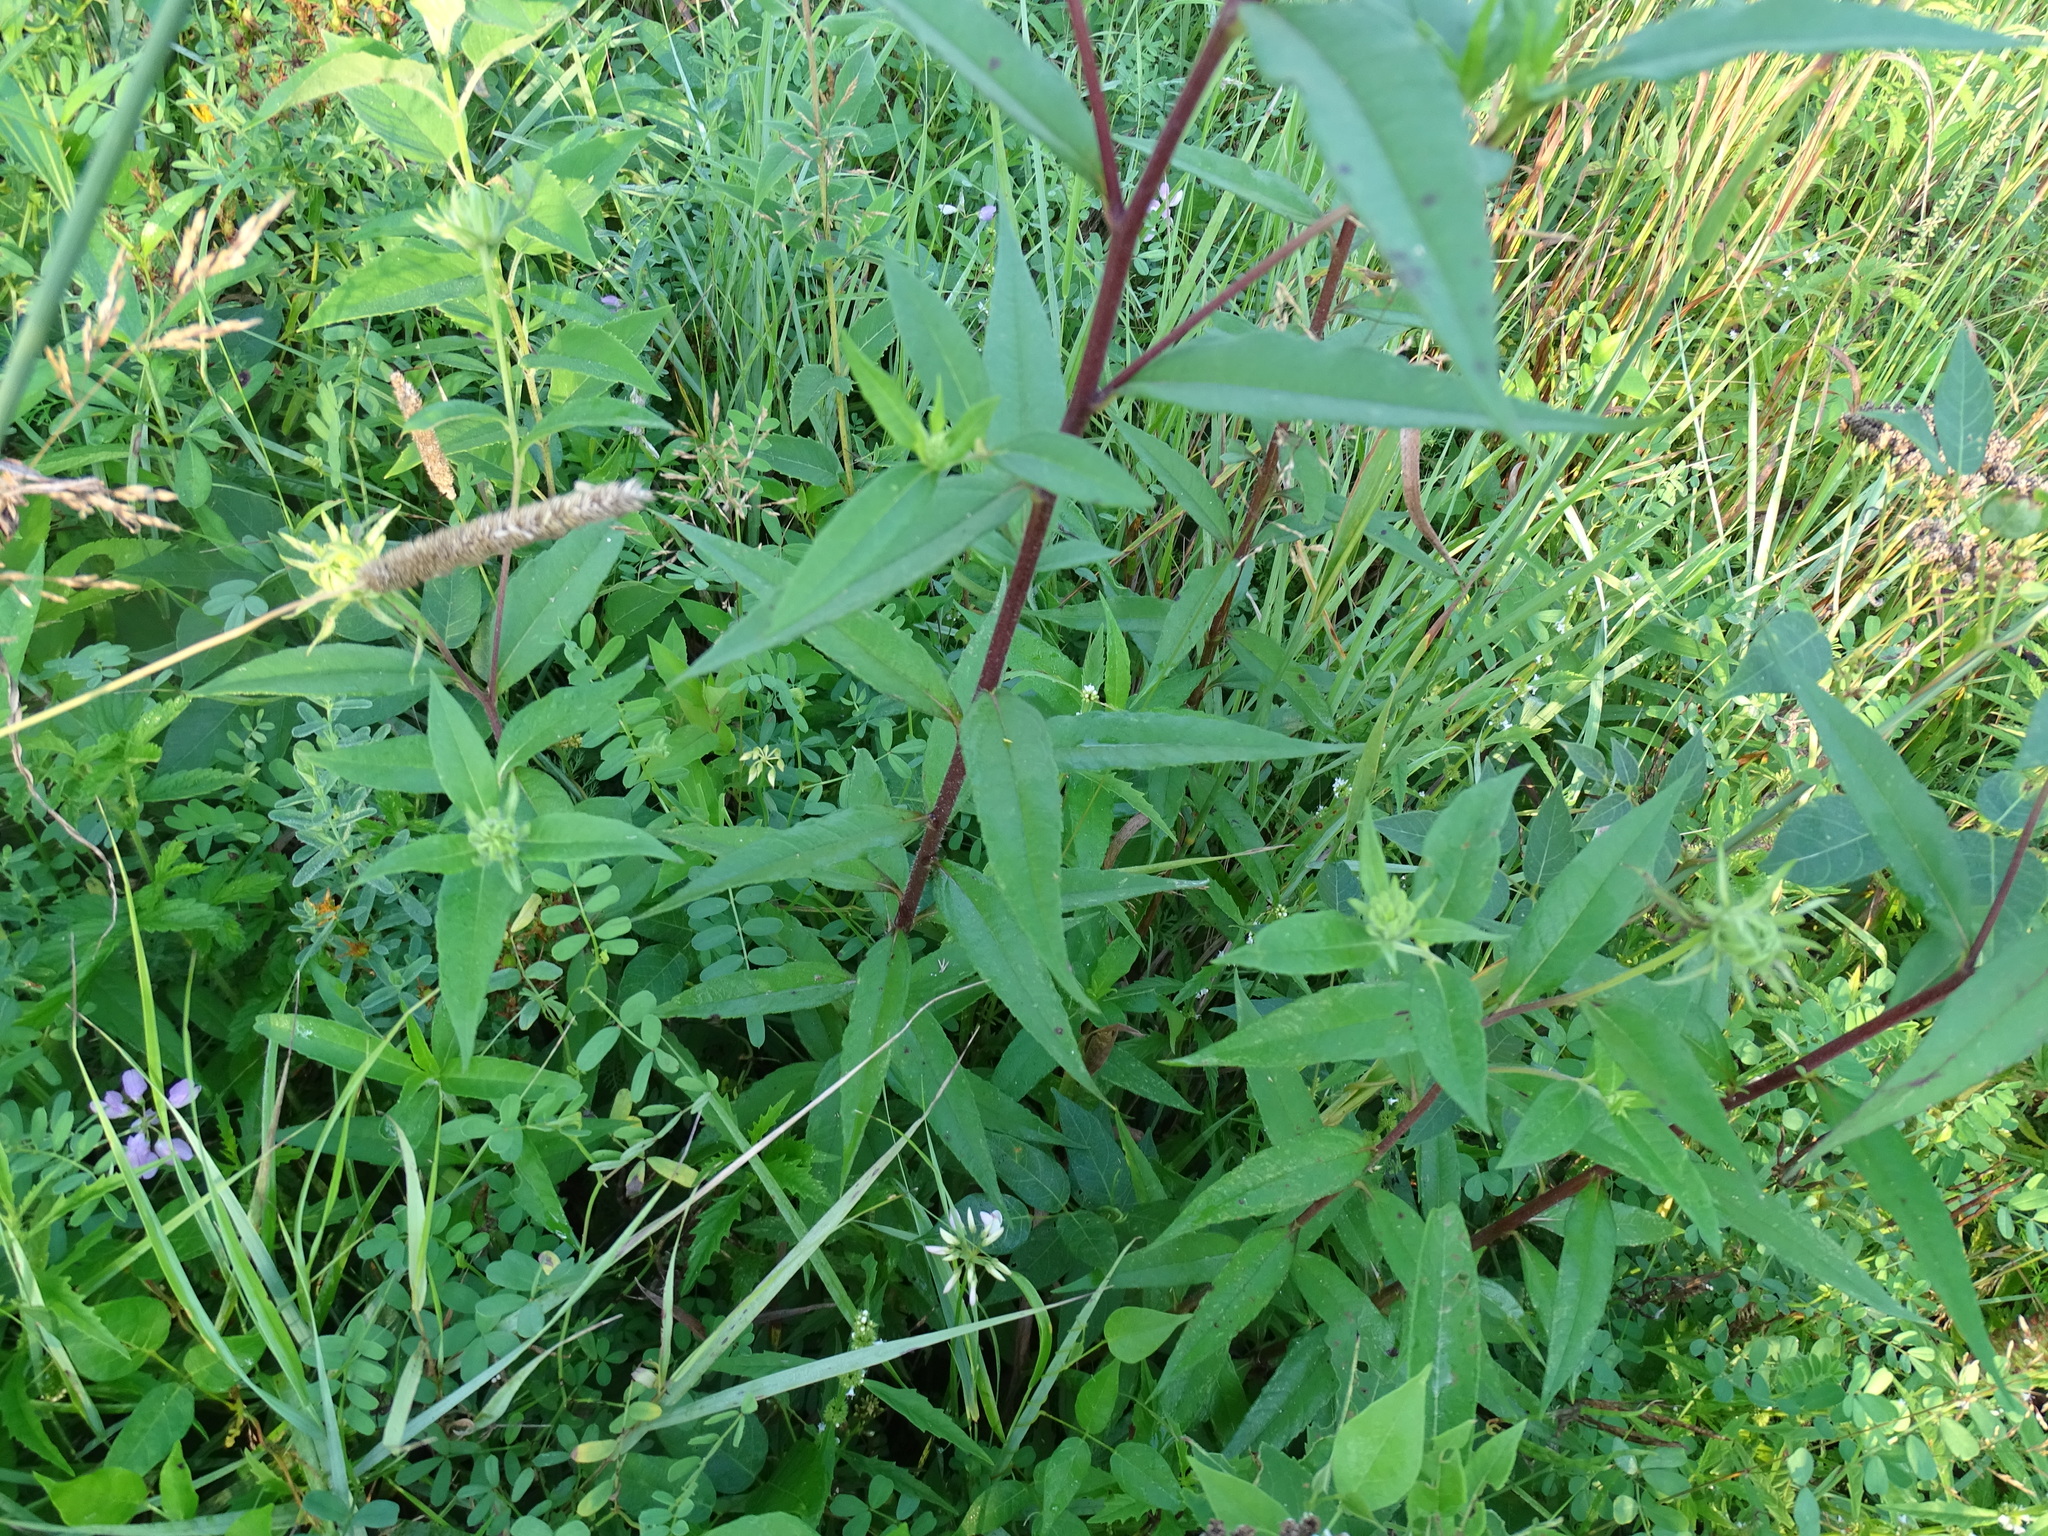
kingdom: Plantae
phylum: Tracheophyta
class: Magnoliopsida
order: Asterales
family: Asteraceae
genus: Helianthus
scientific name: Helianthus giganteus
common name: Giant sunflower
